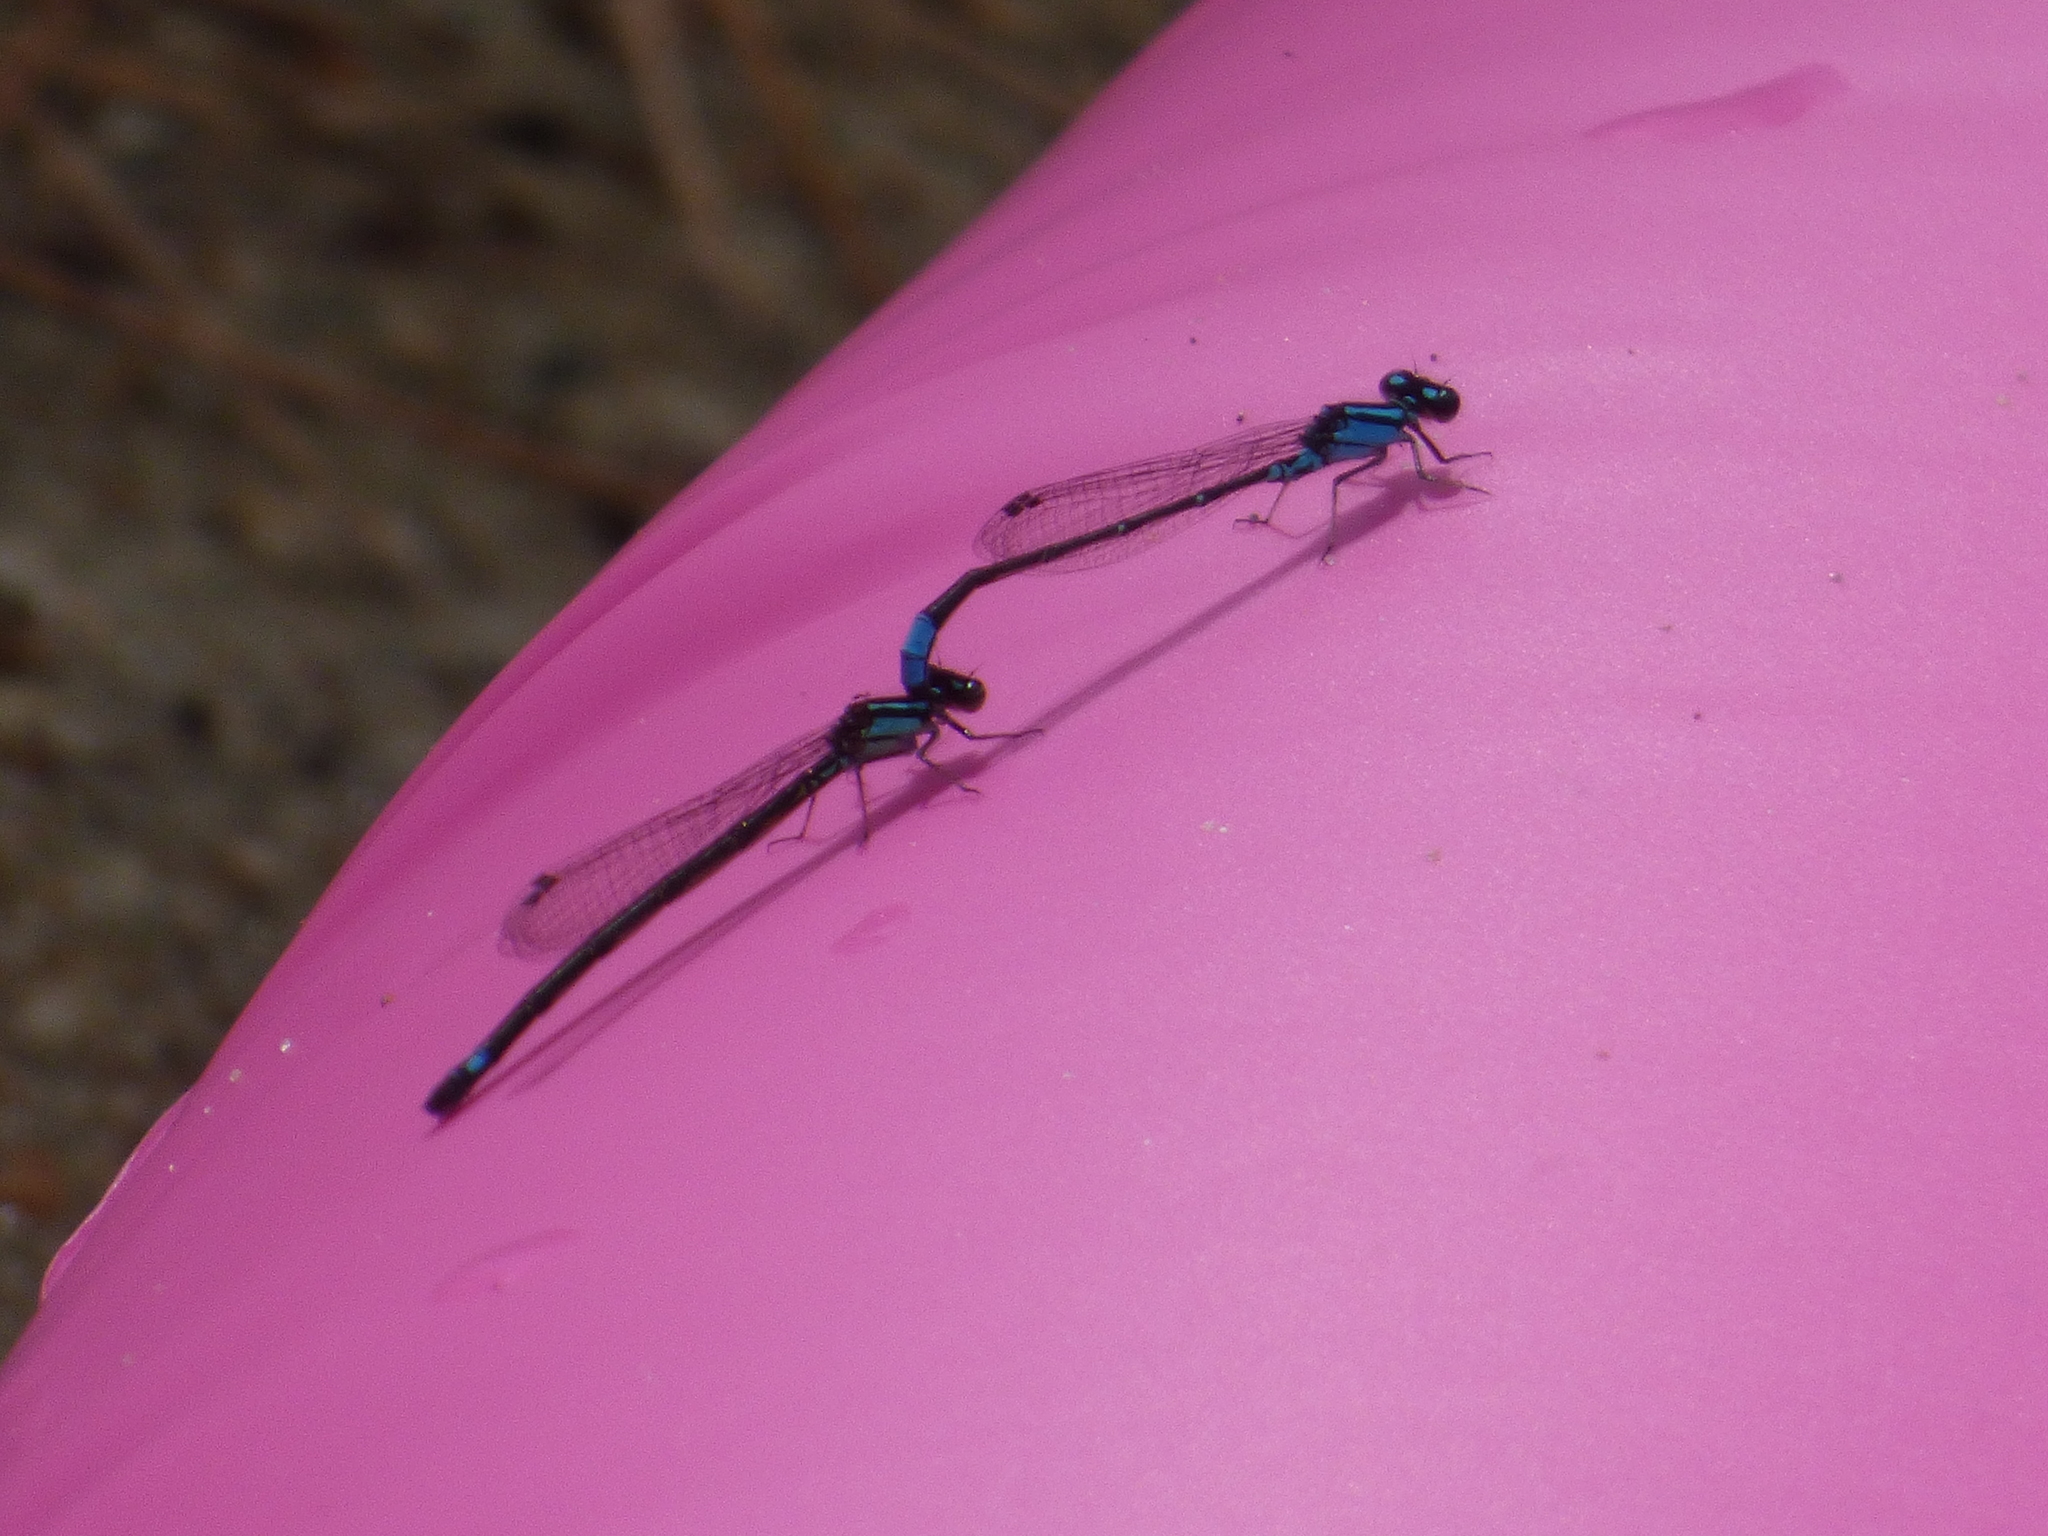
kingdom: Animalia
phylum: Arthropoda
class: Insecta
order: Odonata
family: Coenagrionidae
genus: Enallagma
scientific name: Enallagma geminatum
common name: Skimming bluet
